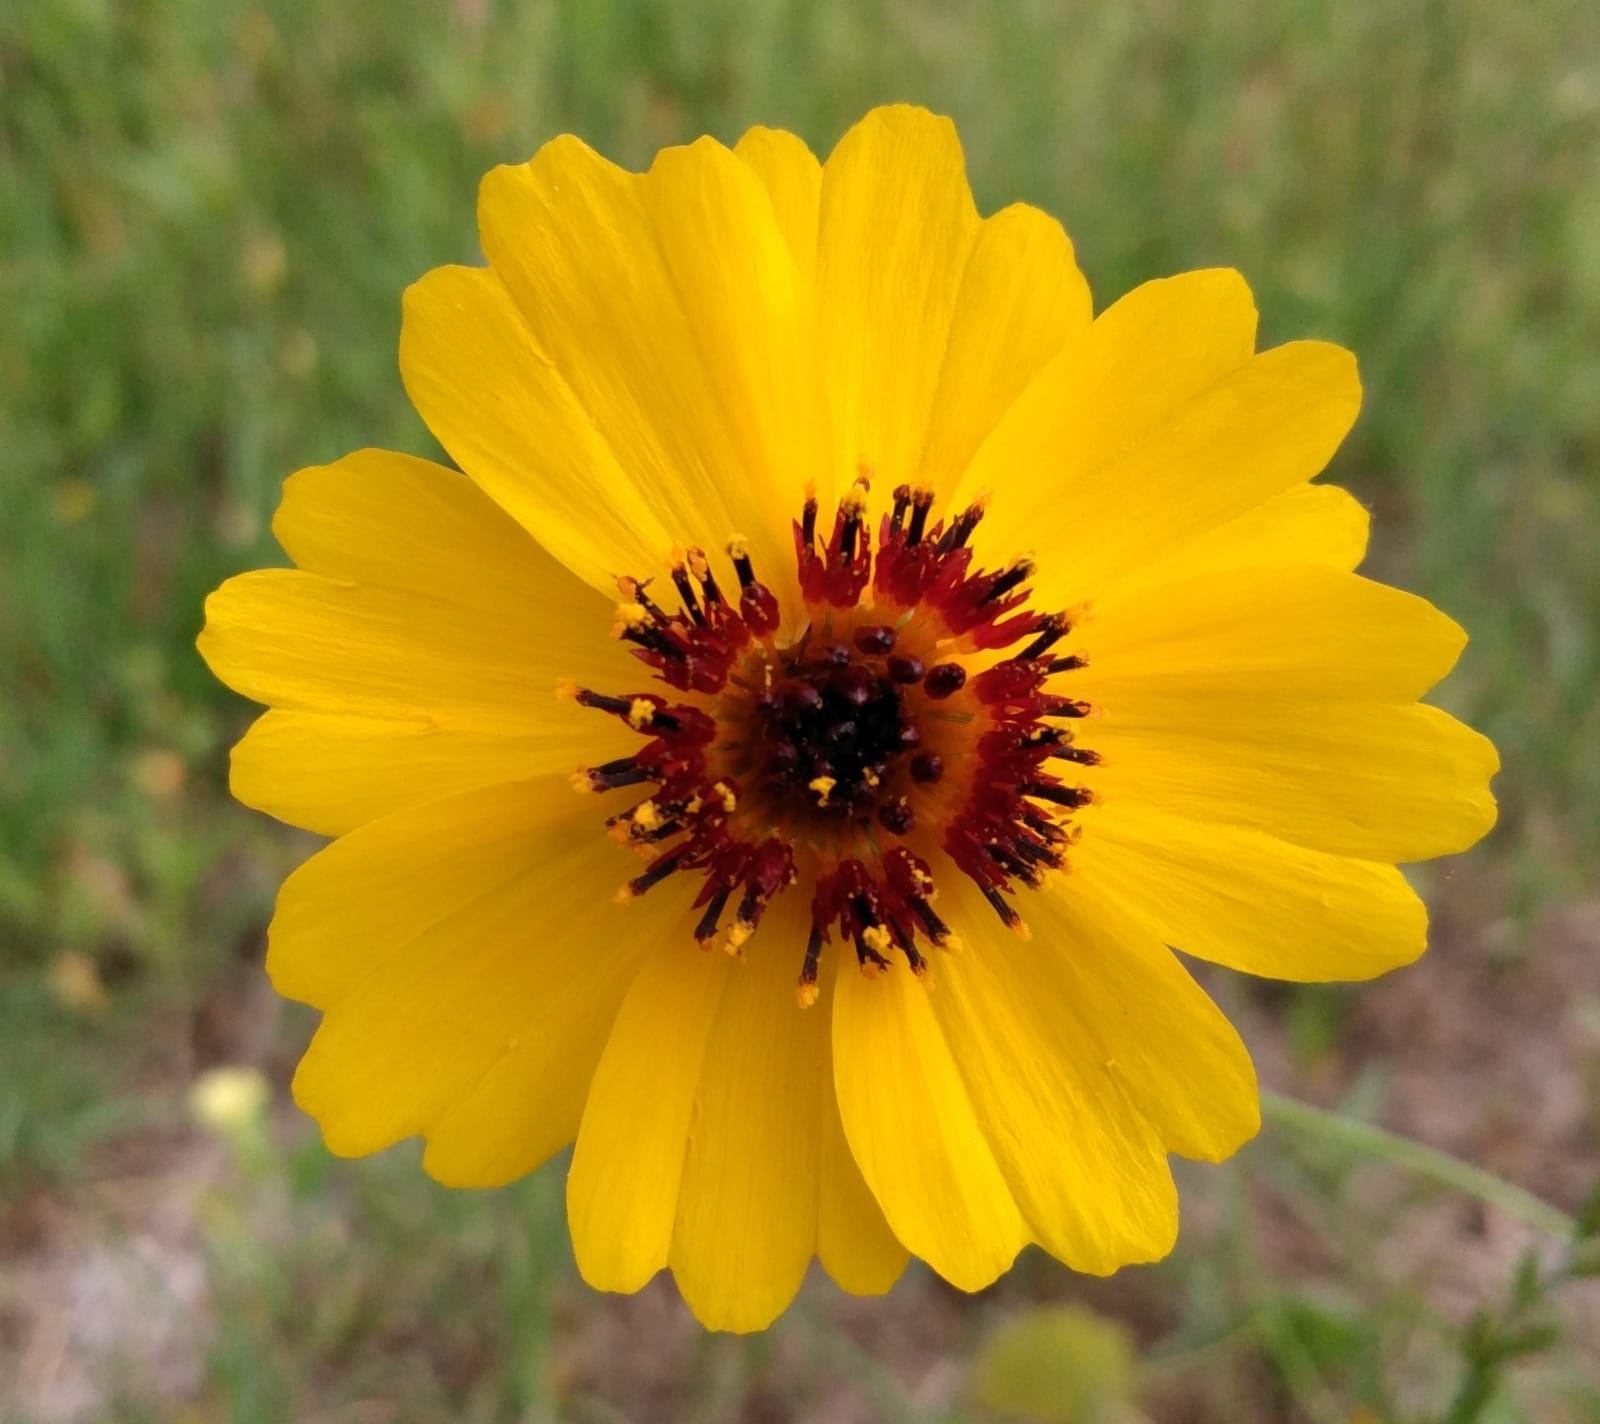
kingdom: Plantae
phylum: Tracheophyta
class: Magnoliopsida
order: Asterales
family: Asteraceae
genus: Thelesperma
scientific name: Thelesperma filifolium
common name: Stiff greenthread
